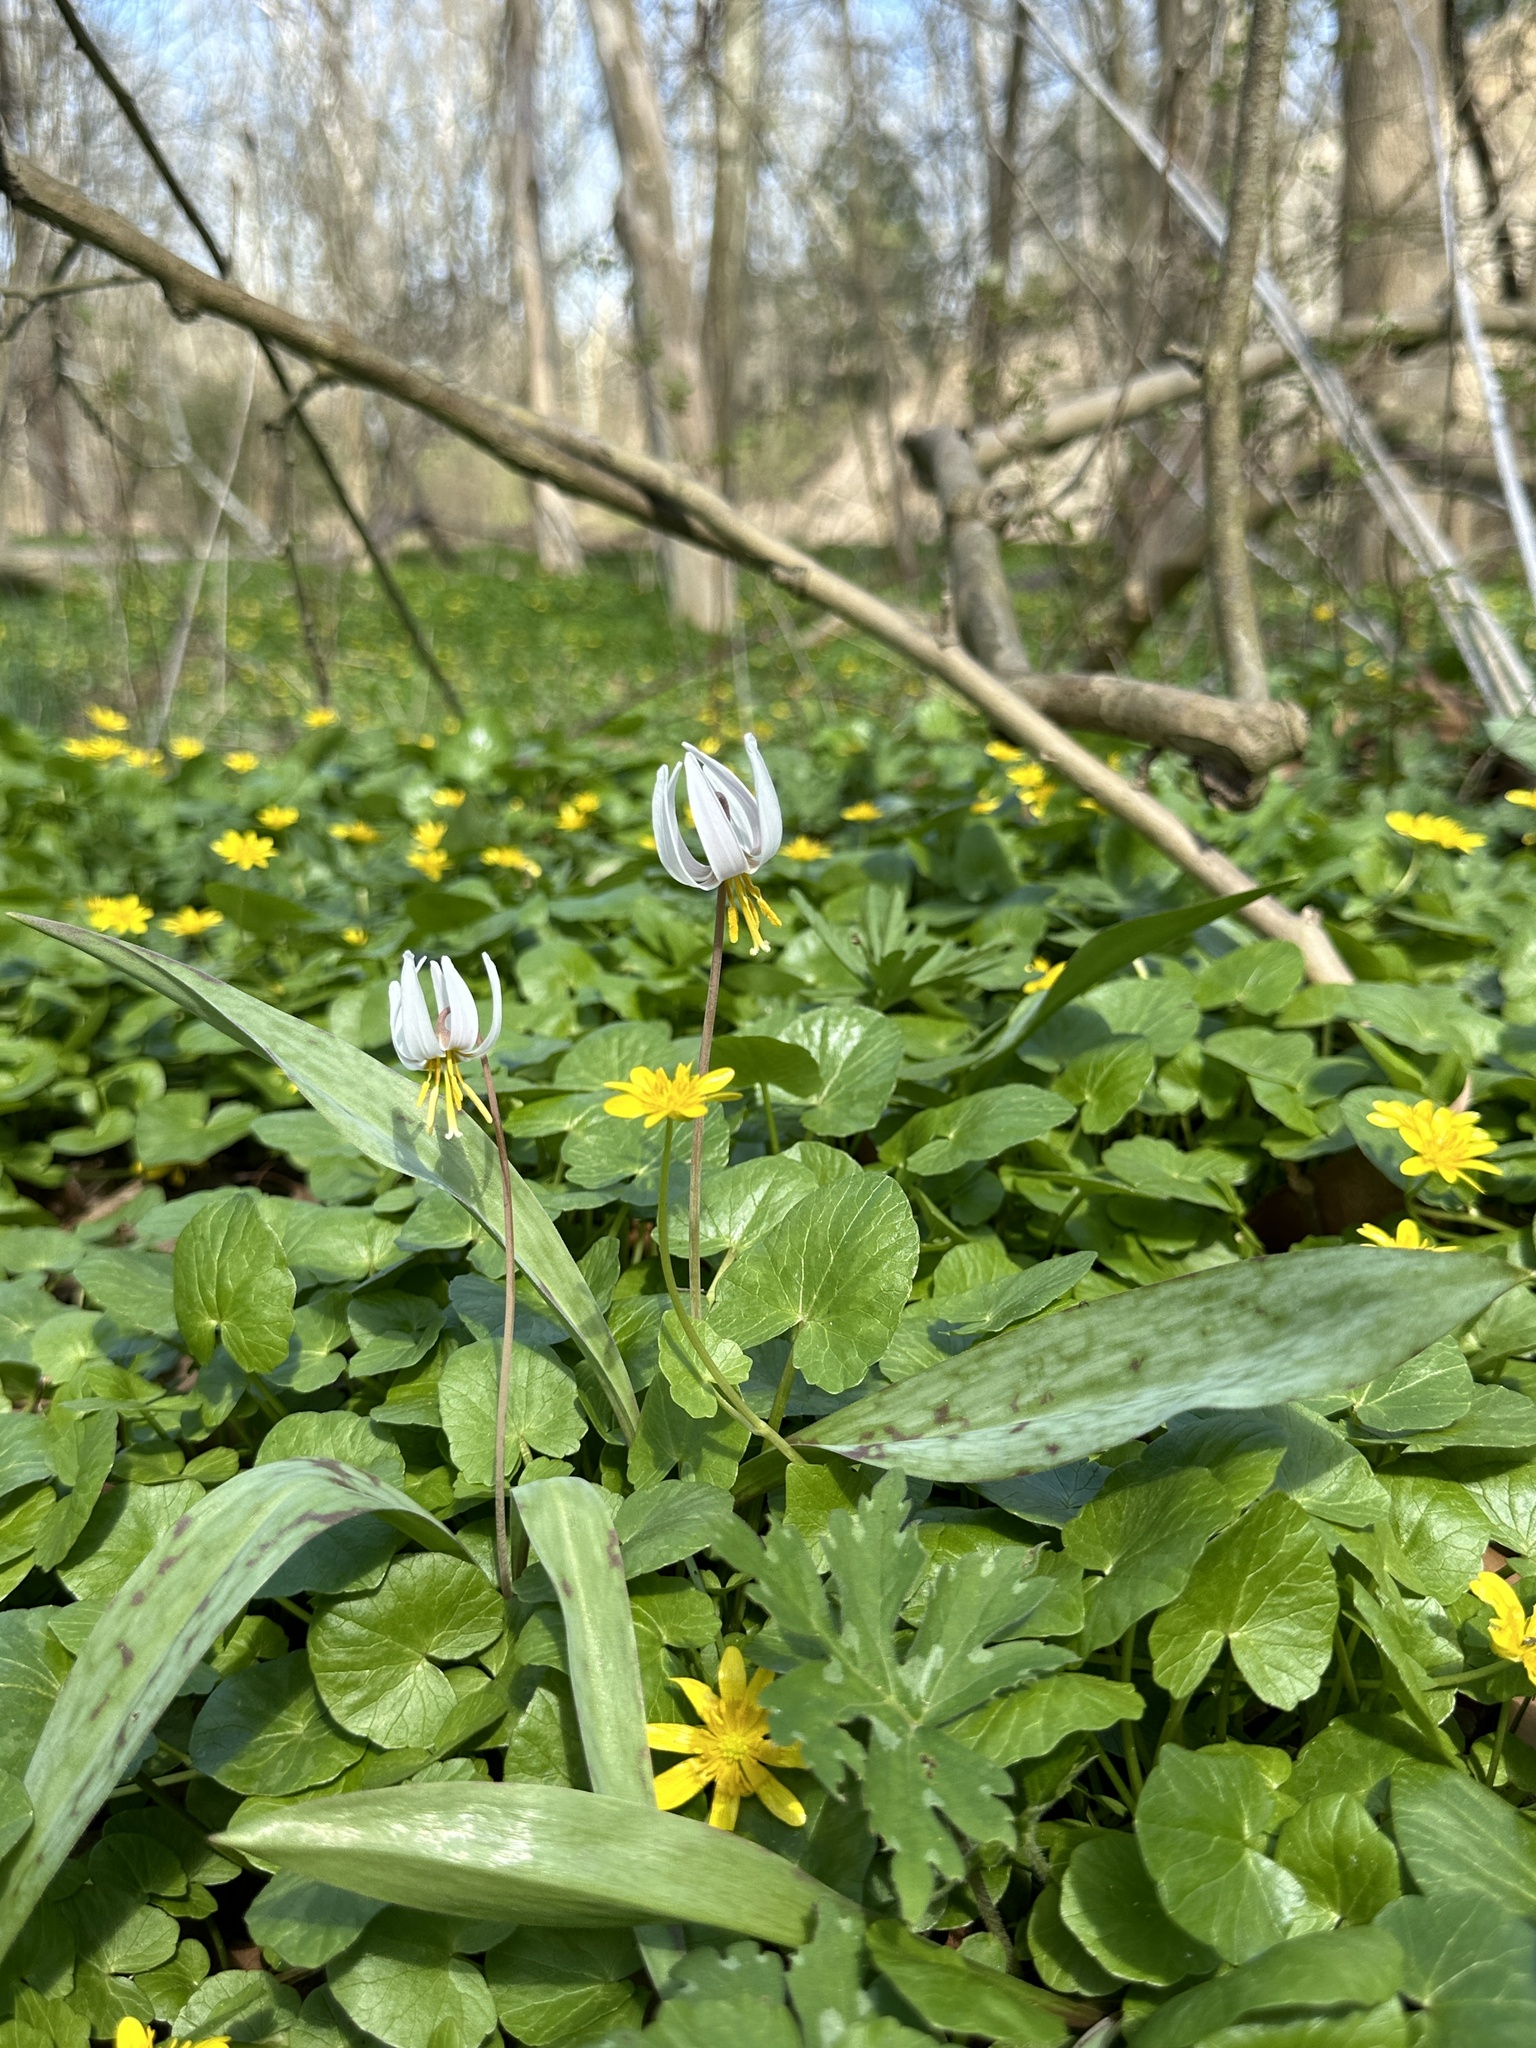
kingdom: Plantae
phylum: Tracheophyta
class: Liliopsida
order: Liliales
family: Liliaceae
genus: Erythronium
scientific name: Erythronium albidum
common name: White trout-lily
